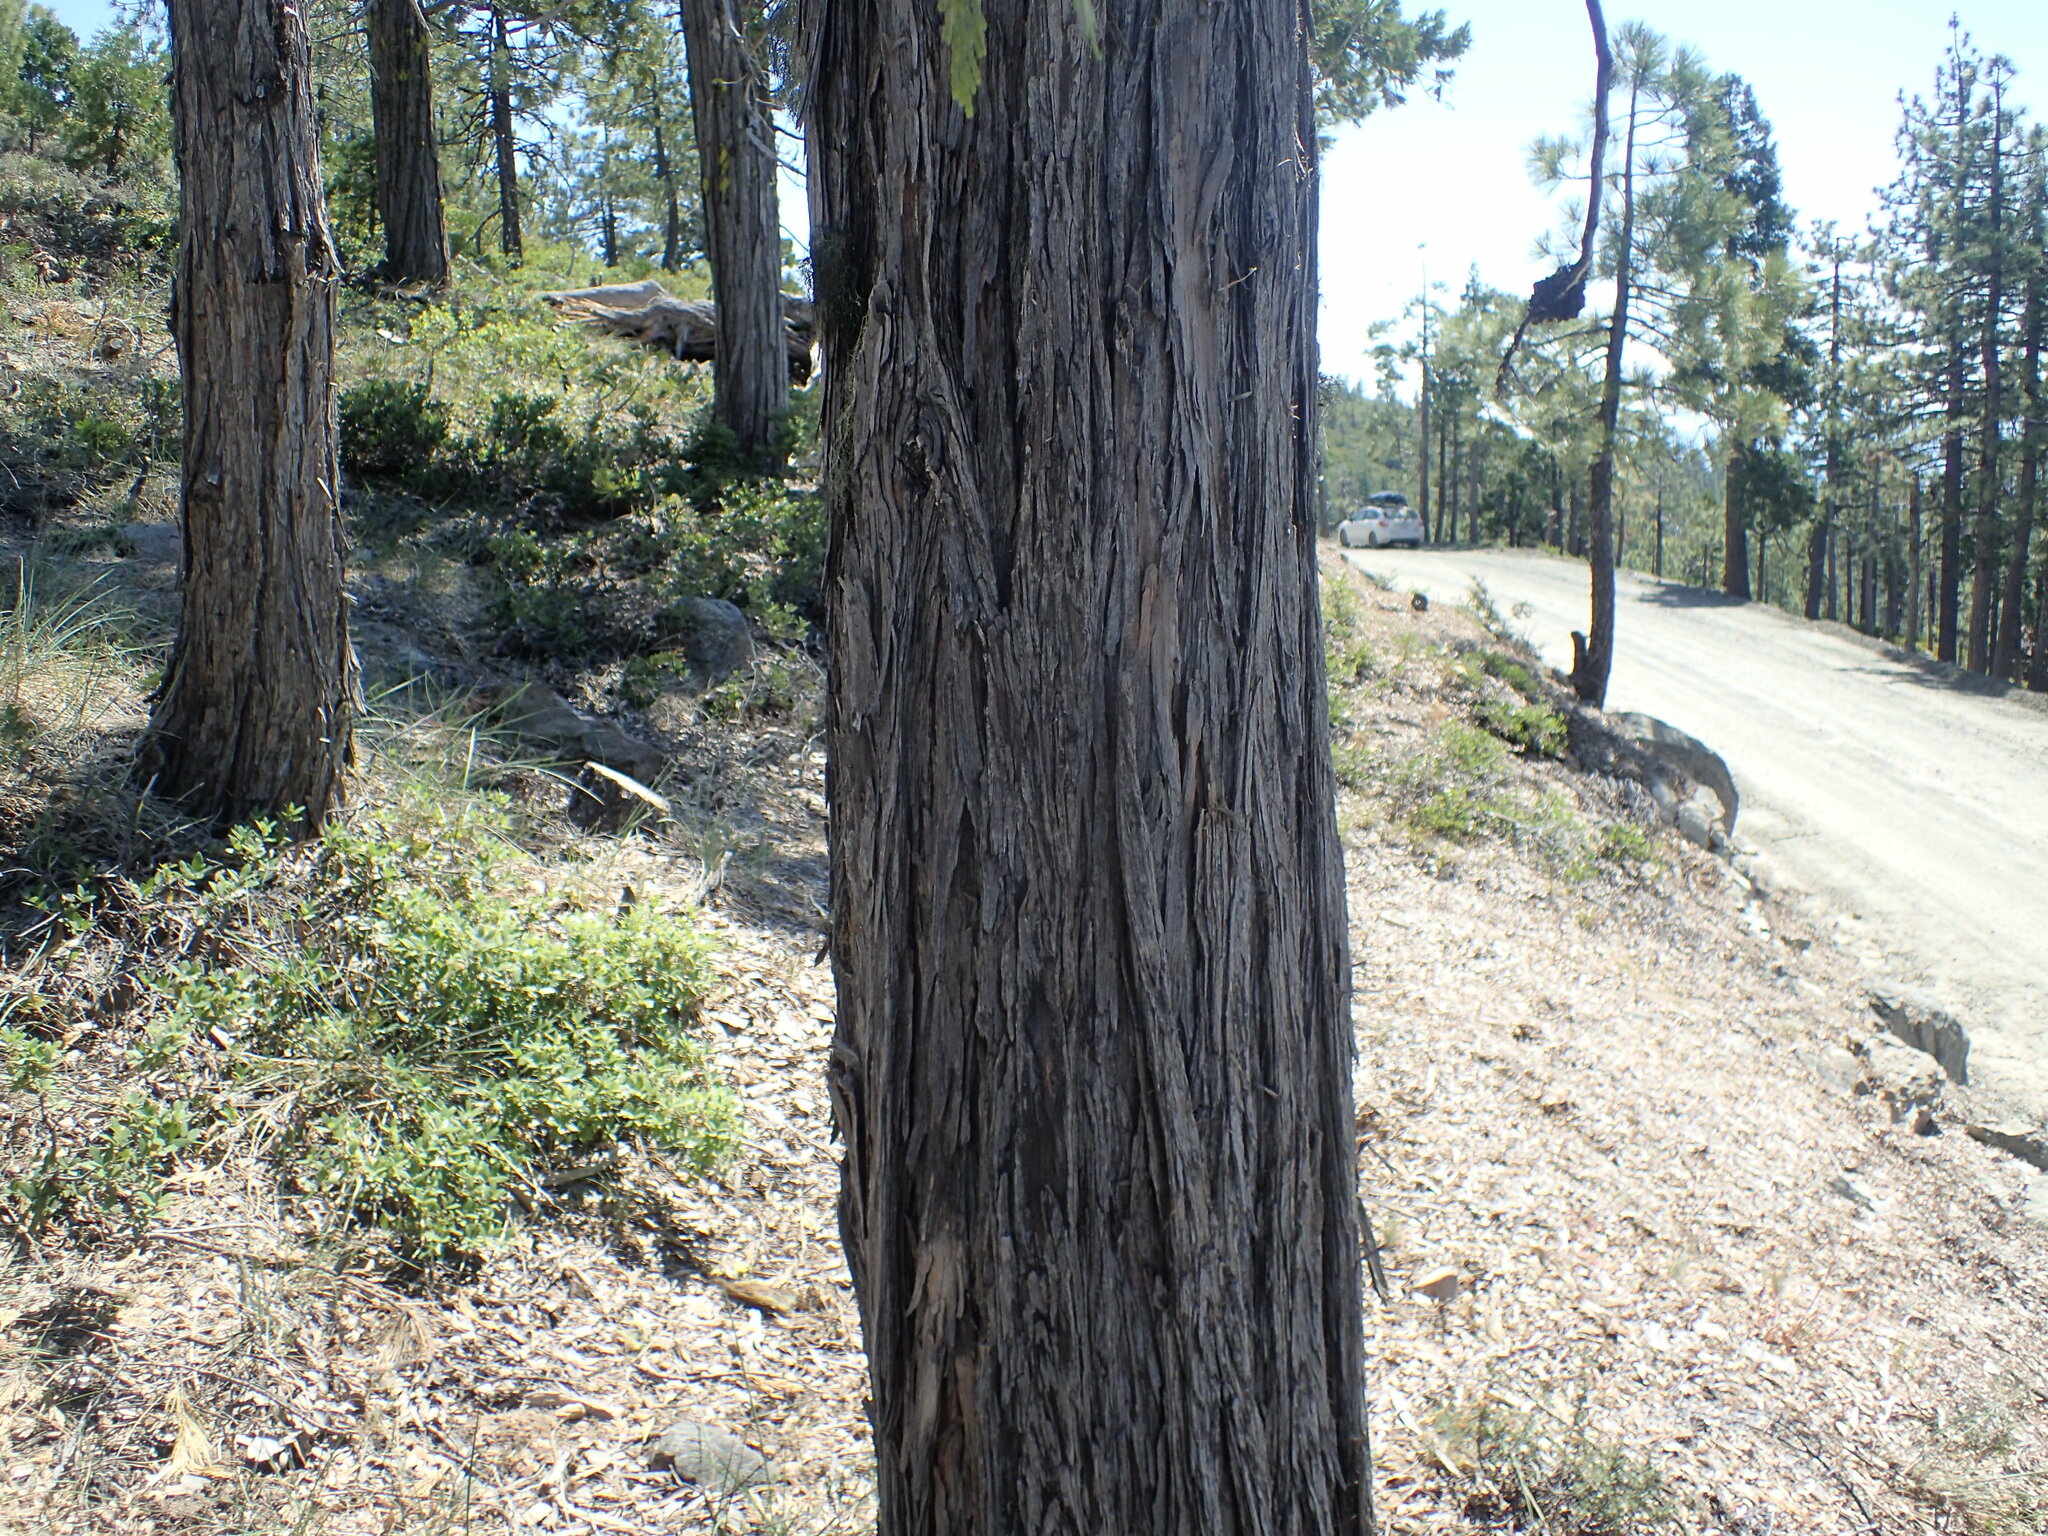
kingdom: Plantae
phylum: Tracheophyta
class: Pinopsida
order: Pinales
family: Cupressaceae
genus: Calocedrus
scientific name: Calocedrus decurrens
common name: Californian incense-cedar
